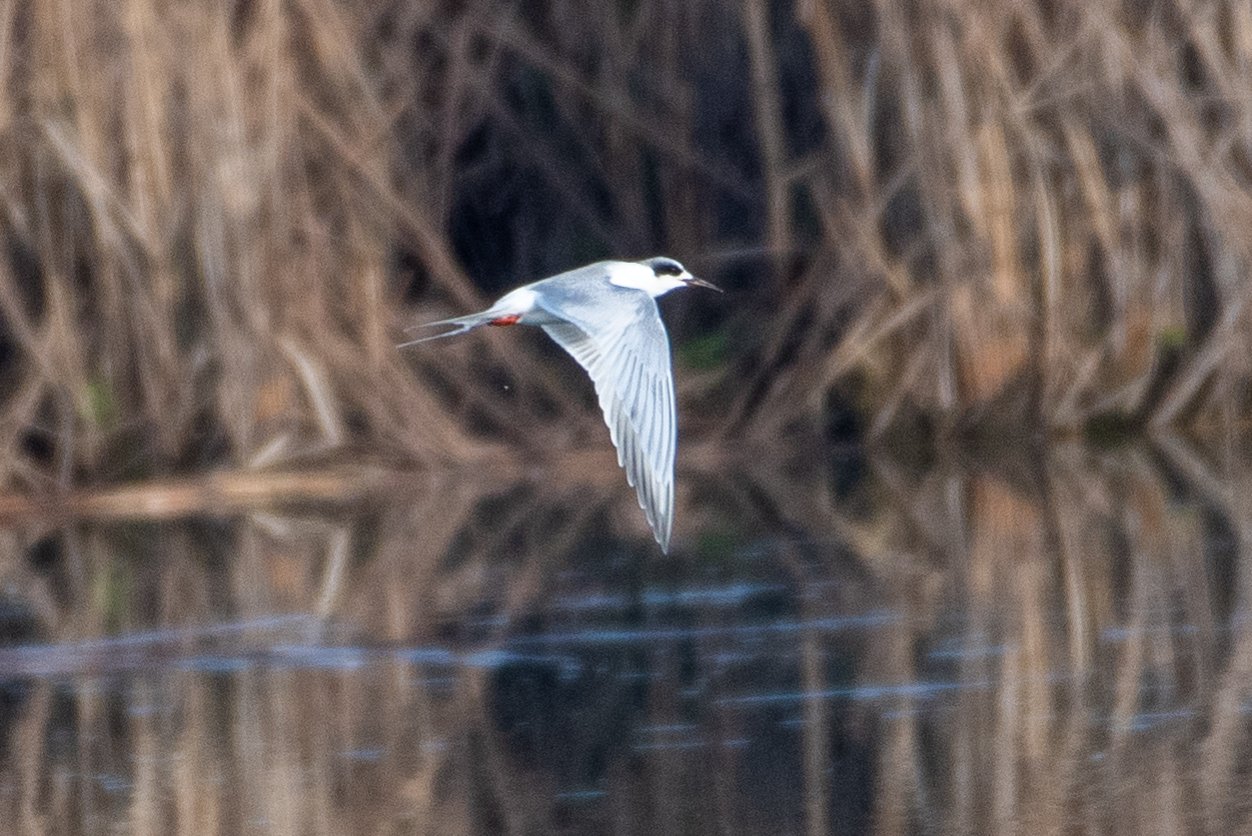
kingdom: Animalia
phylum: Chordata
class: Aves
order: Charadriiformes
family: Laridae
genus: Sterna
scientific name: Sterna forsteri
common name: Forster's tern
